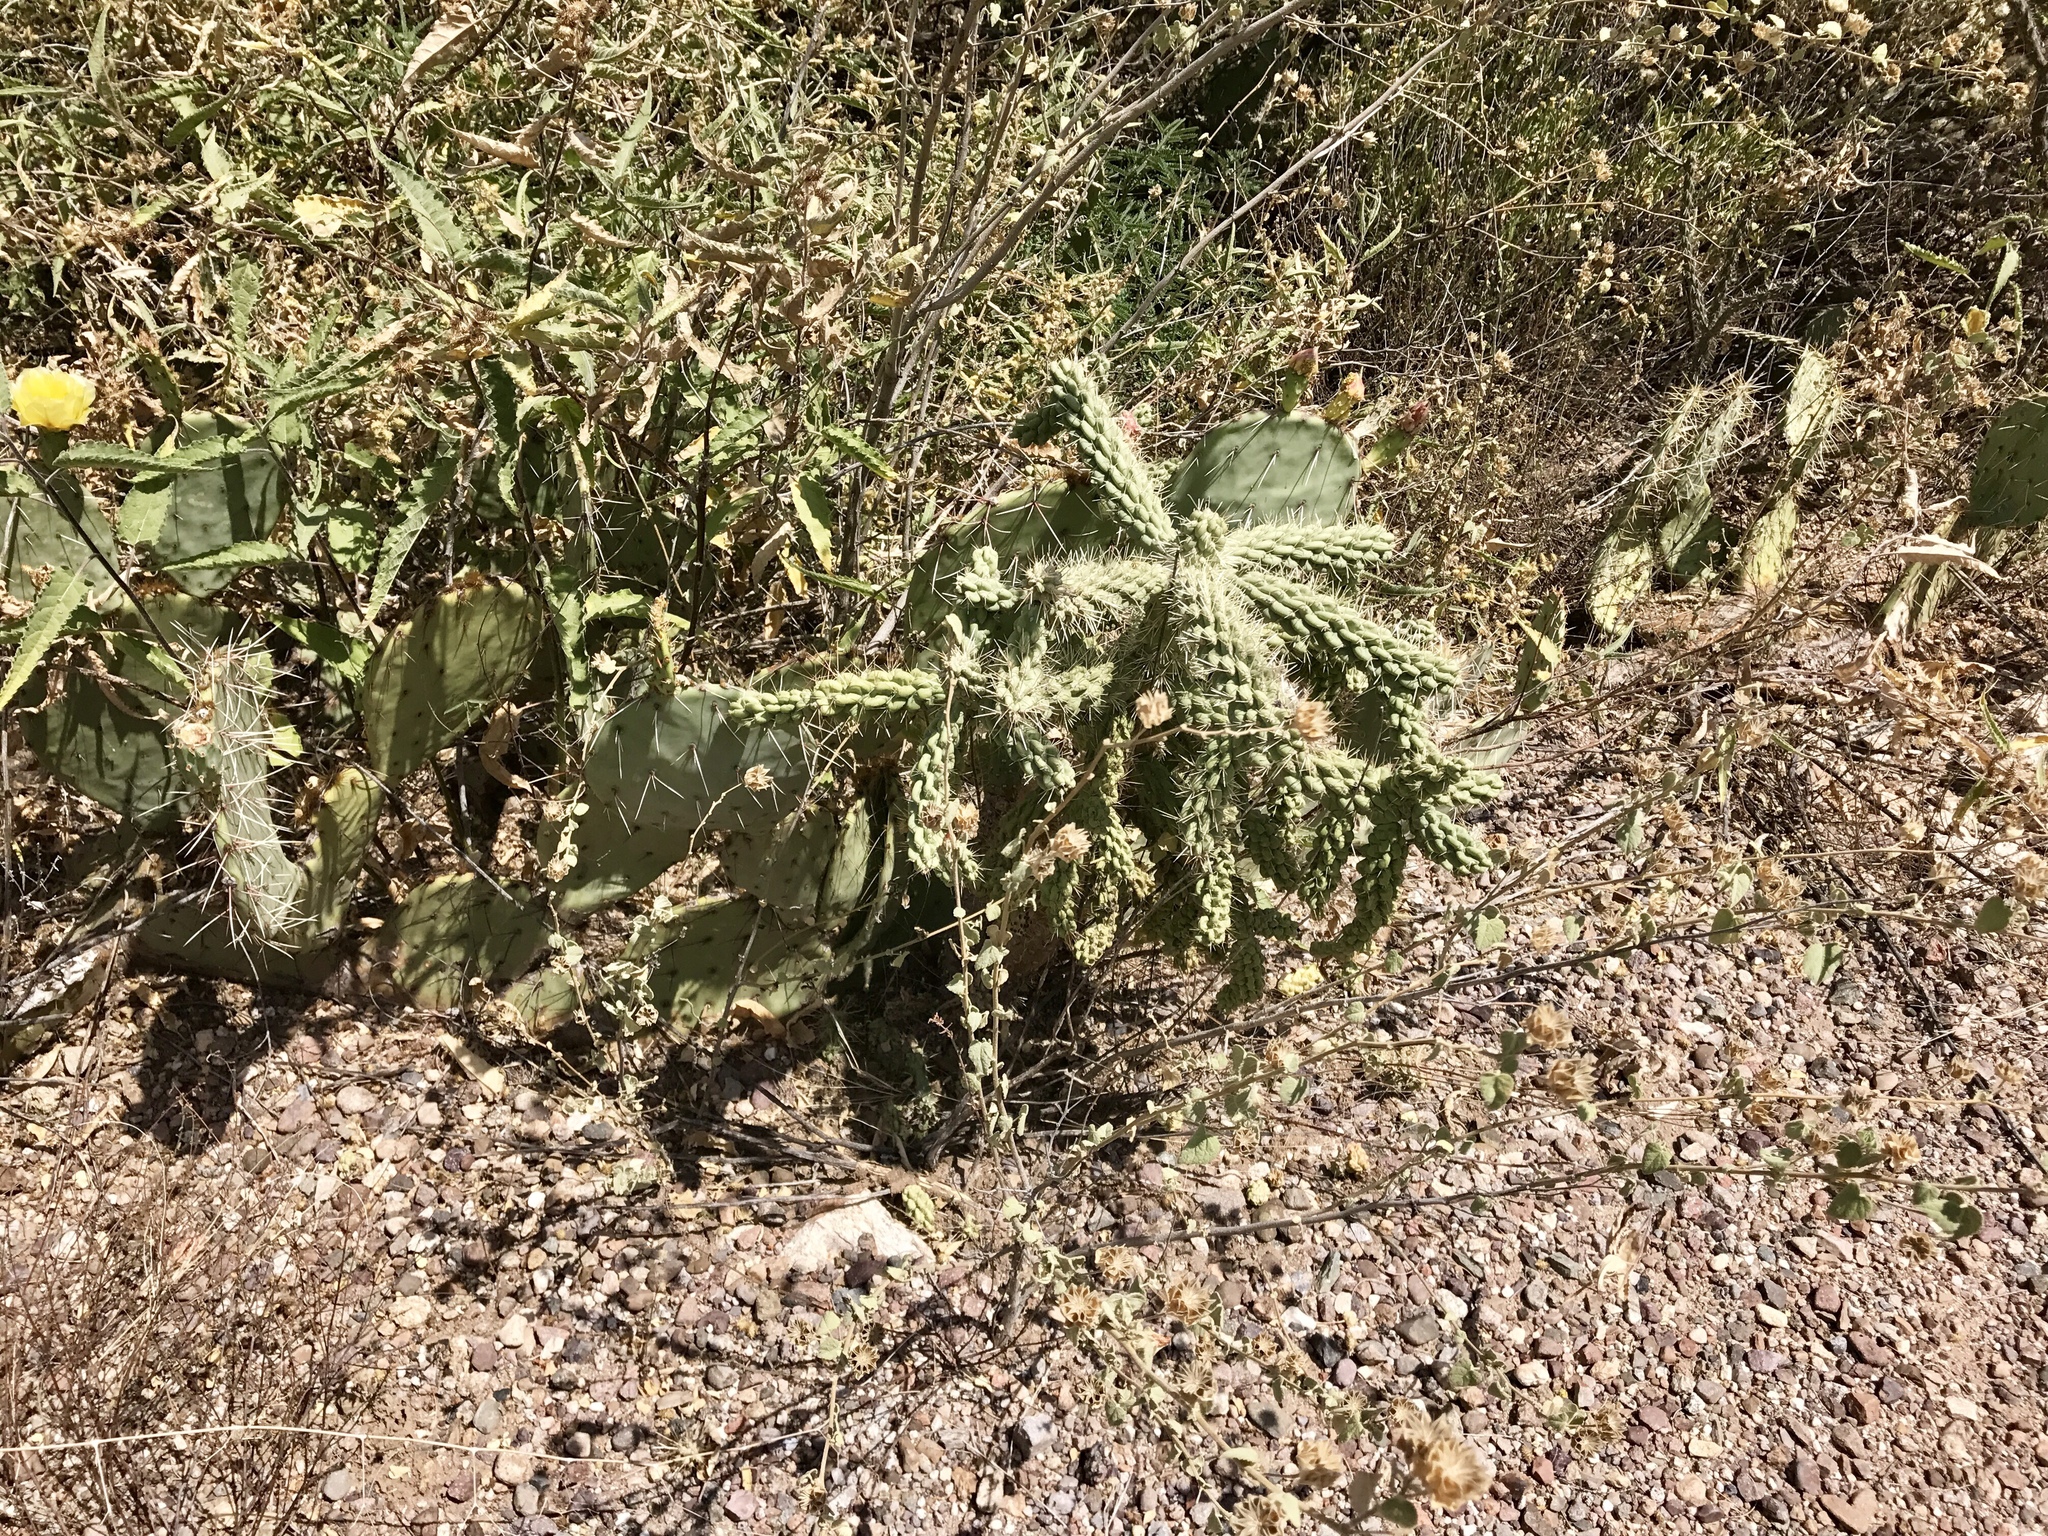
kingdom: Plantae
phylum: Tracheophyta
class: Magnoliopsida
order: Caryophyllales
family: Cactaceae
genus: Cylindropuntia
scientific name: Cylindropuntia fulgida
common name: Jumping cholla
